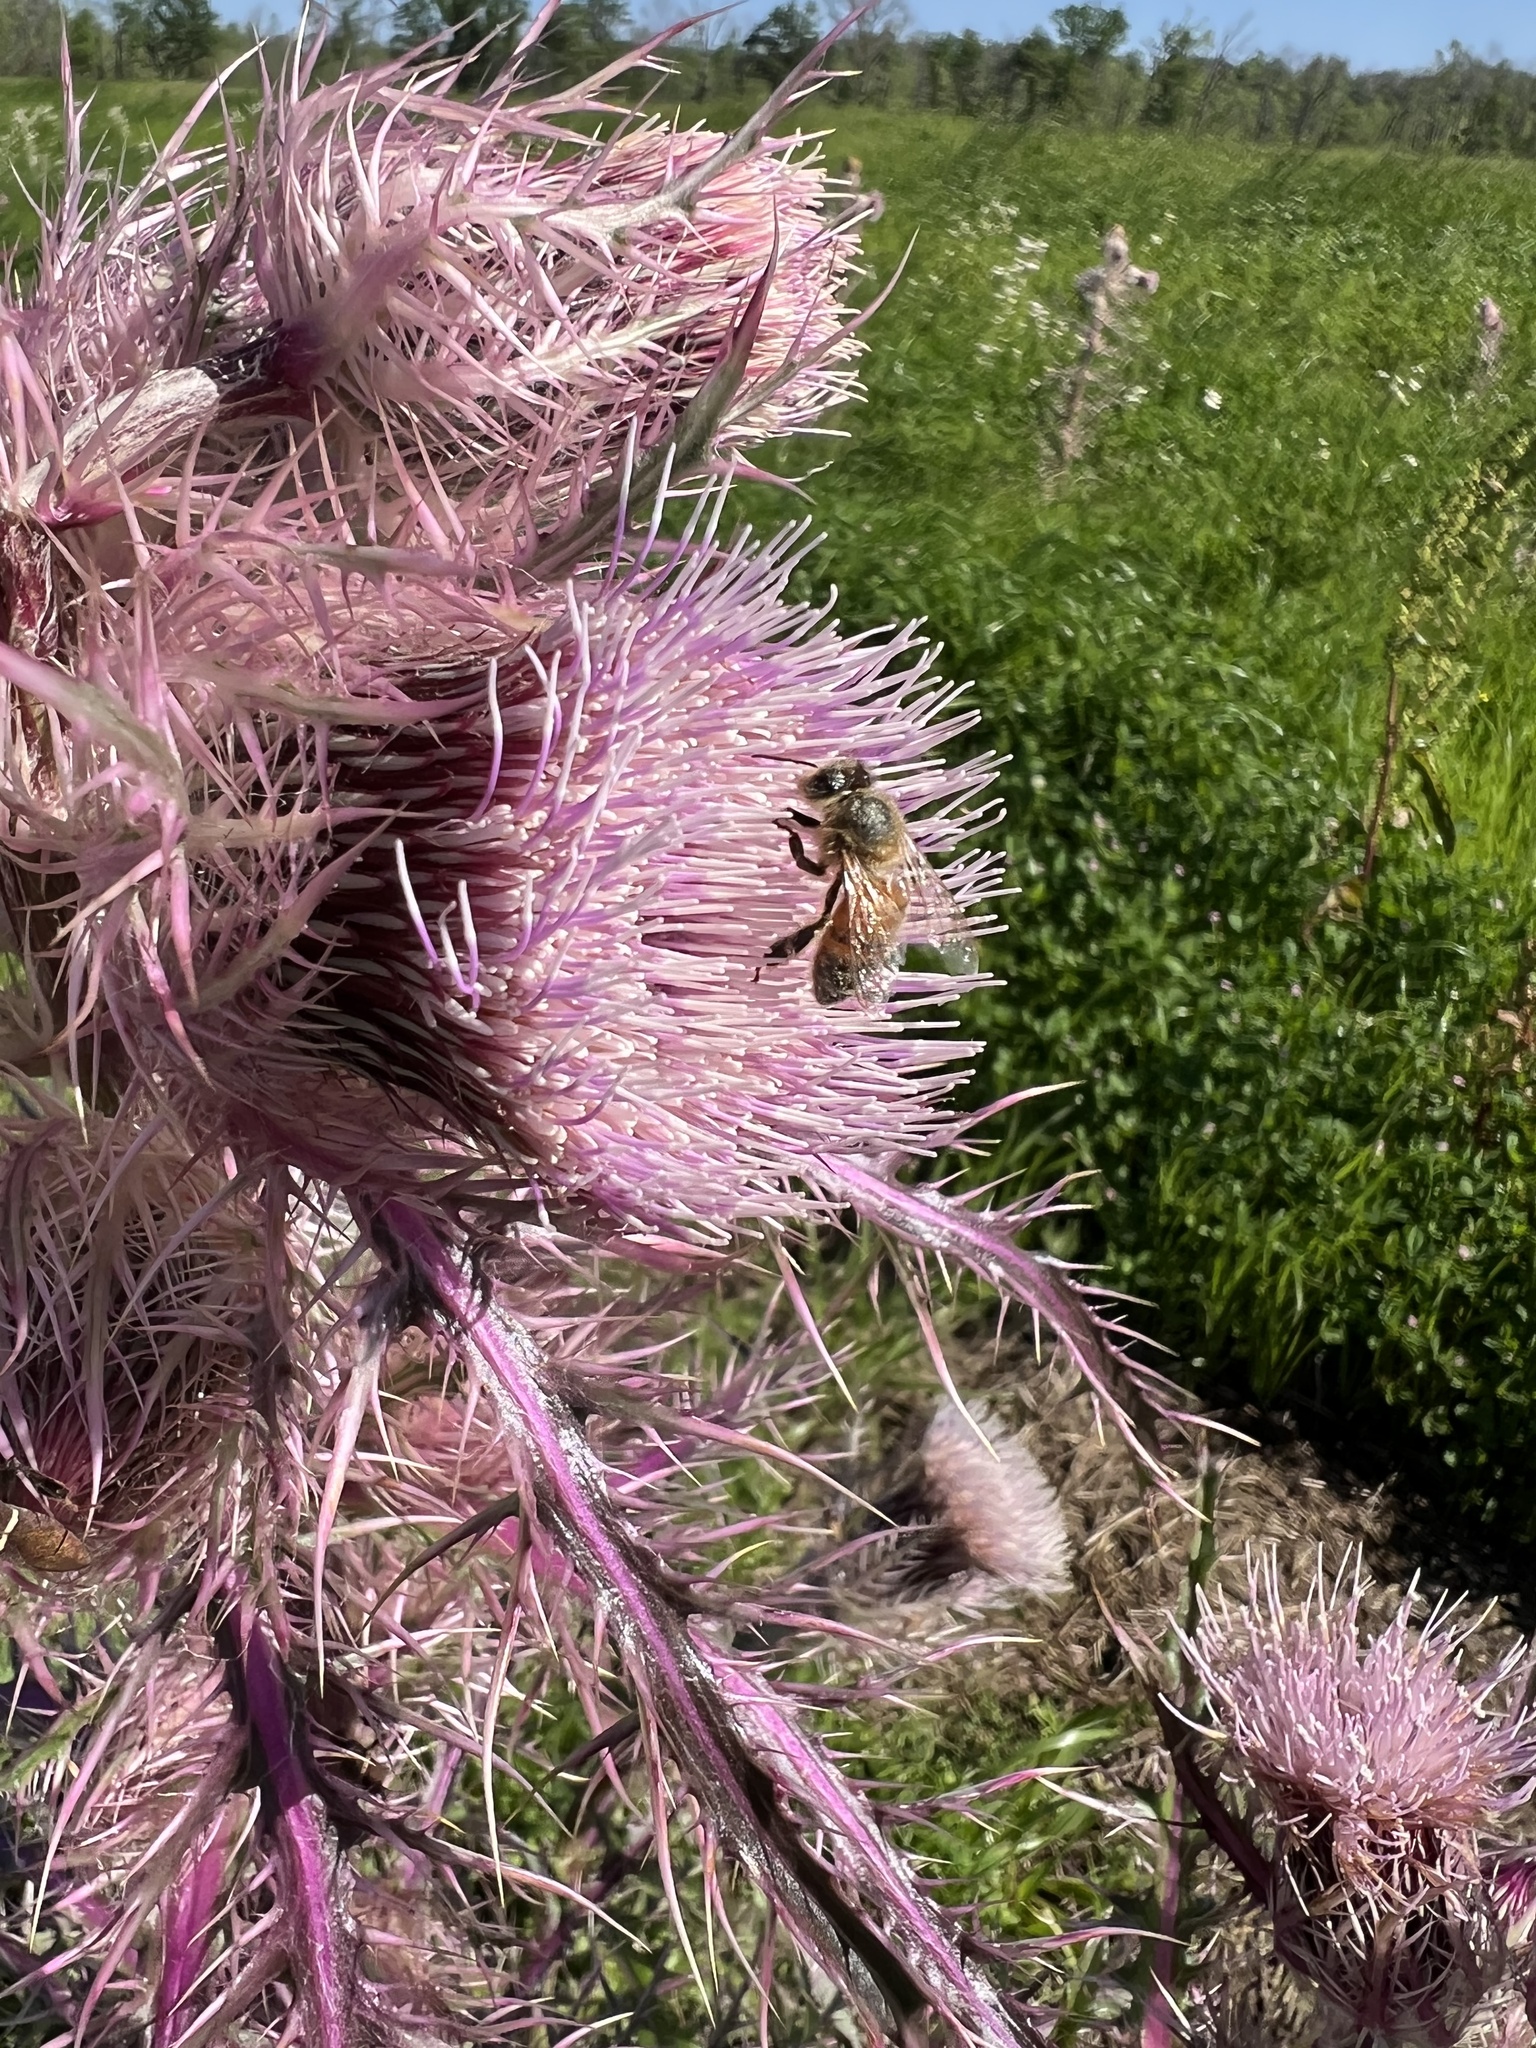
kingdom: Animalia
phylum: Arthropoda
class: Insecta
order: Hymenoptera
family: Apidae
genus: Apis
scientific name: Apis mellifera
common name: Honey bee
